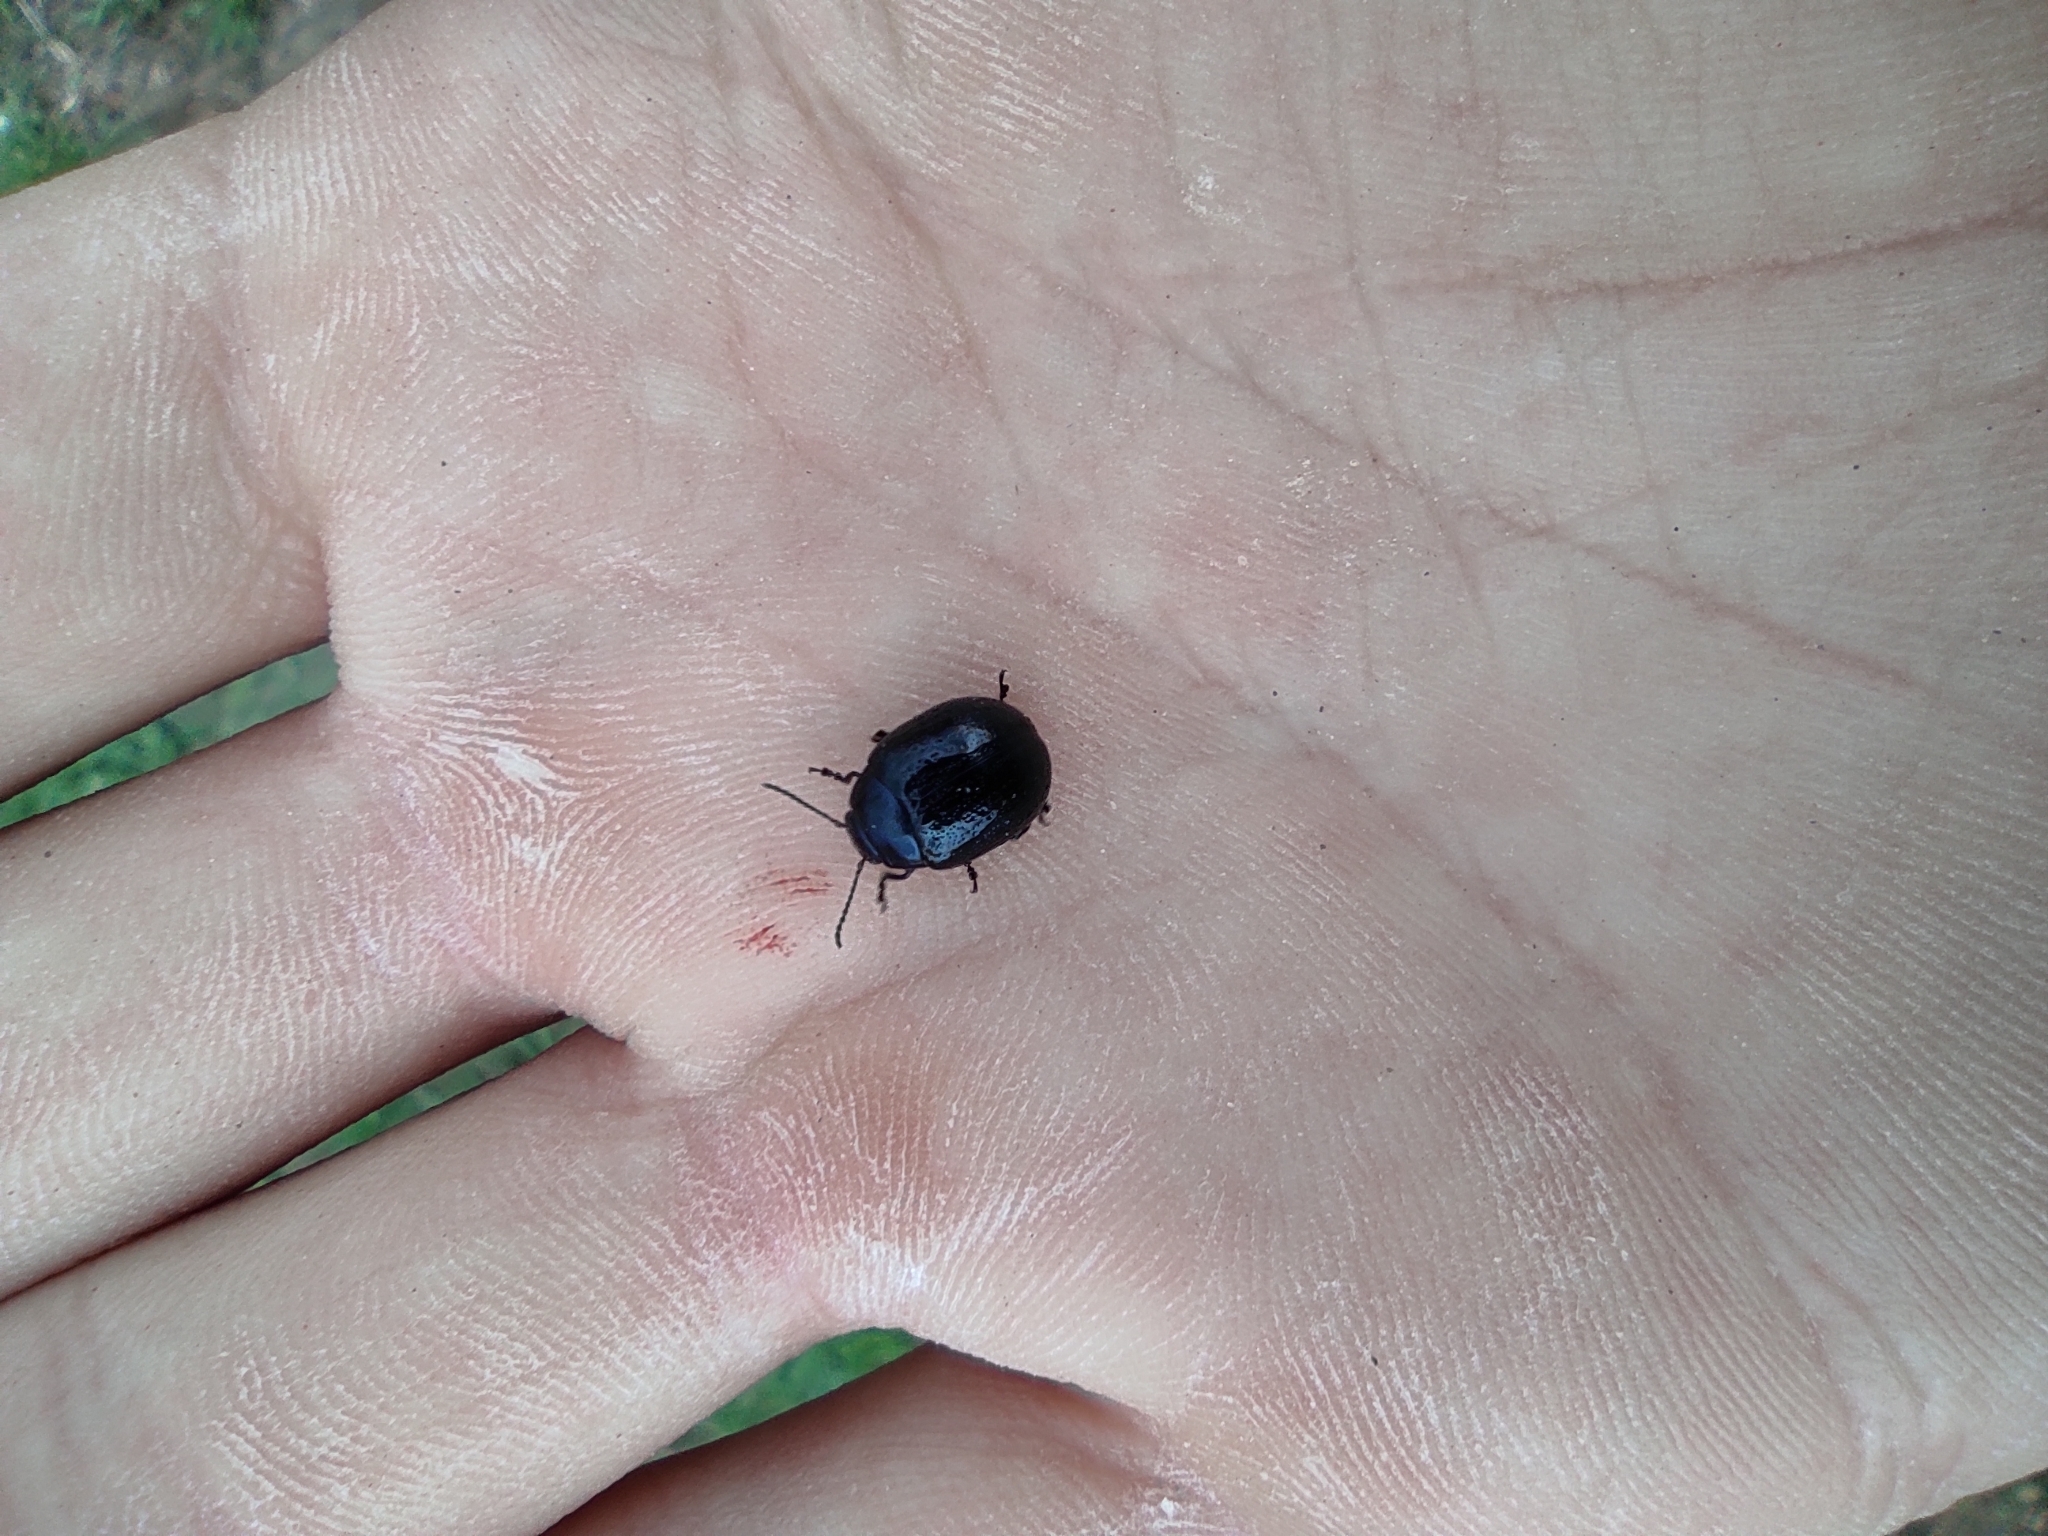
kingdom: Animalia
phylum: Arthropoda
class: Insecta
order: Coleoptera
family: Chrysomelidae
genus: Chrysolina
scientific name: Chrysolina haemoptera
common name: Plantain leaf beetle
